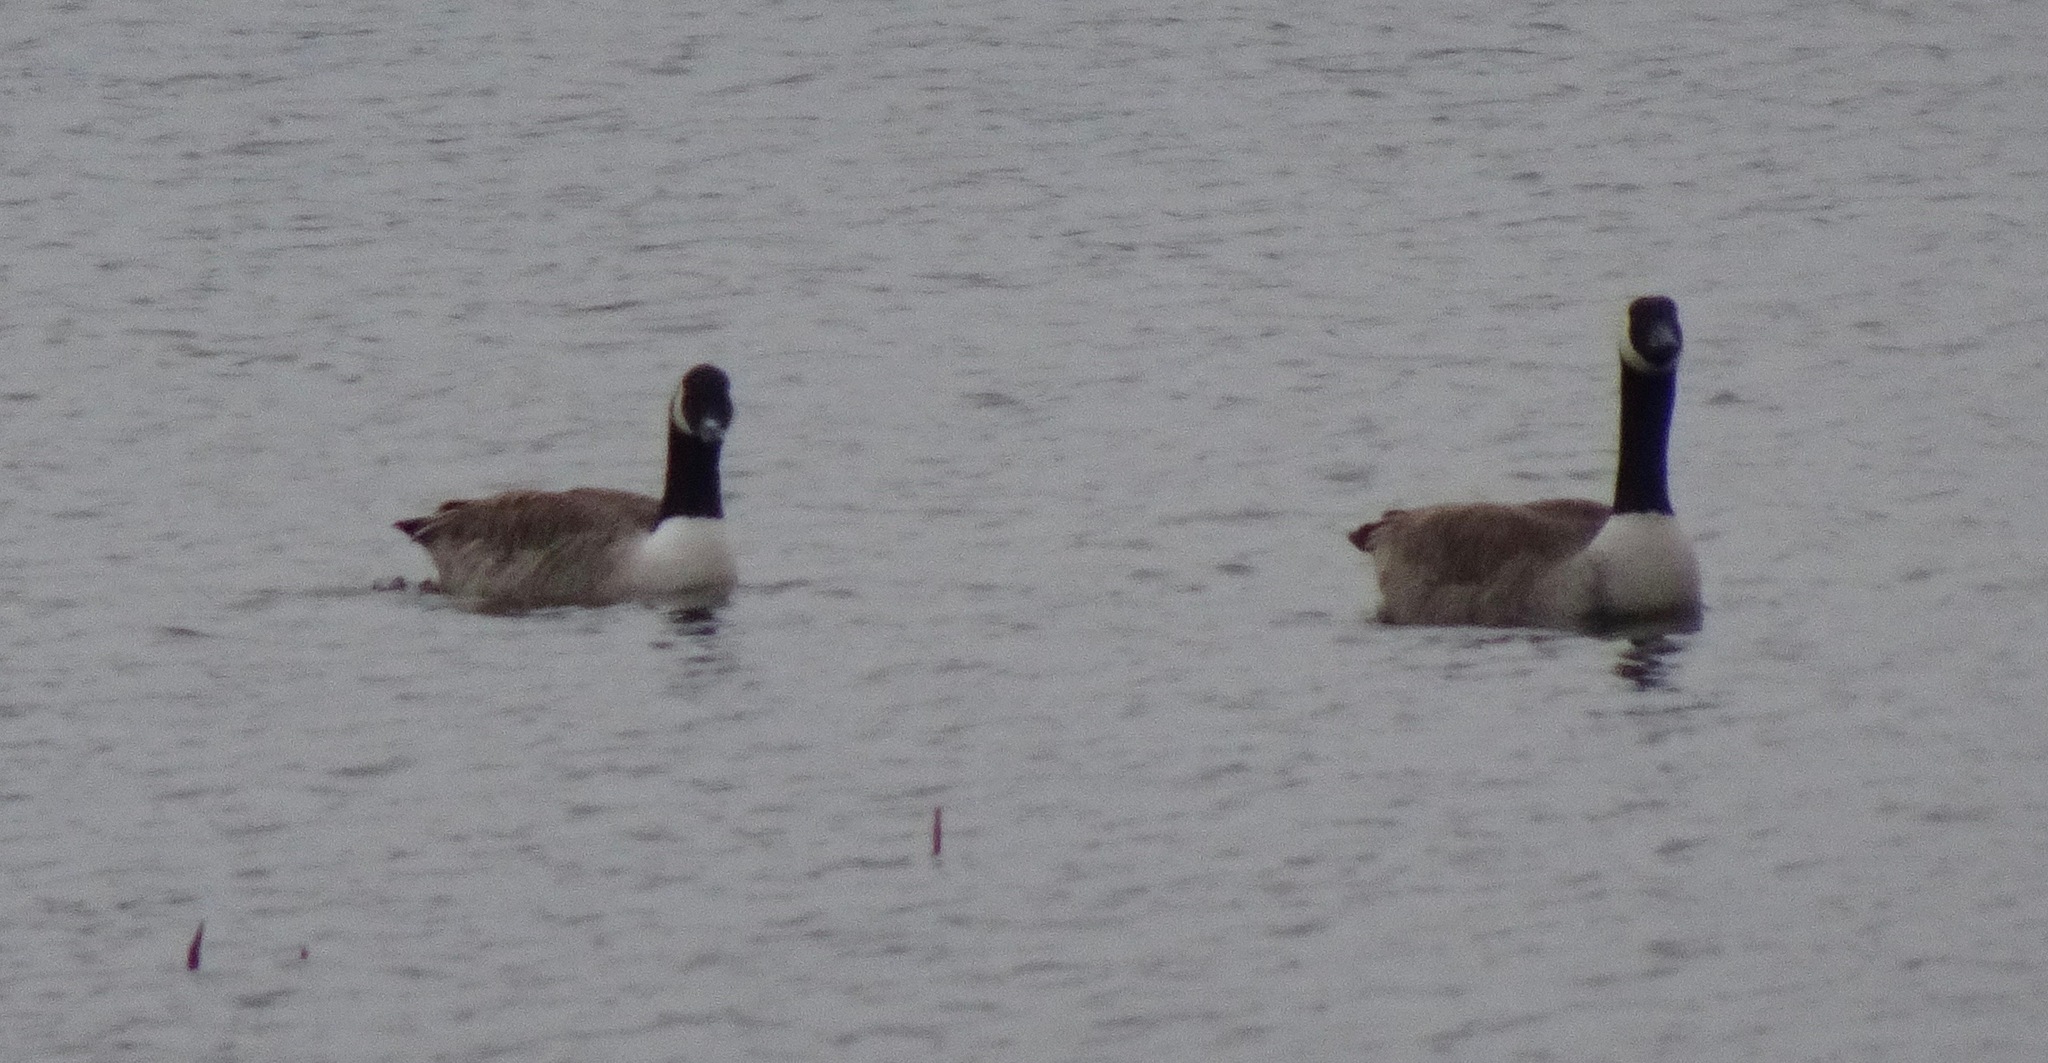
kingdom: Animalia
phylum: Chordata
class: Aves
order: Anseriformes
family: Anatidae
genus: Branta
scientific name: Branta canadensis
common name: Canada goose
